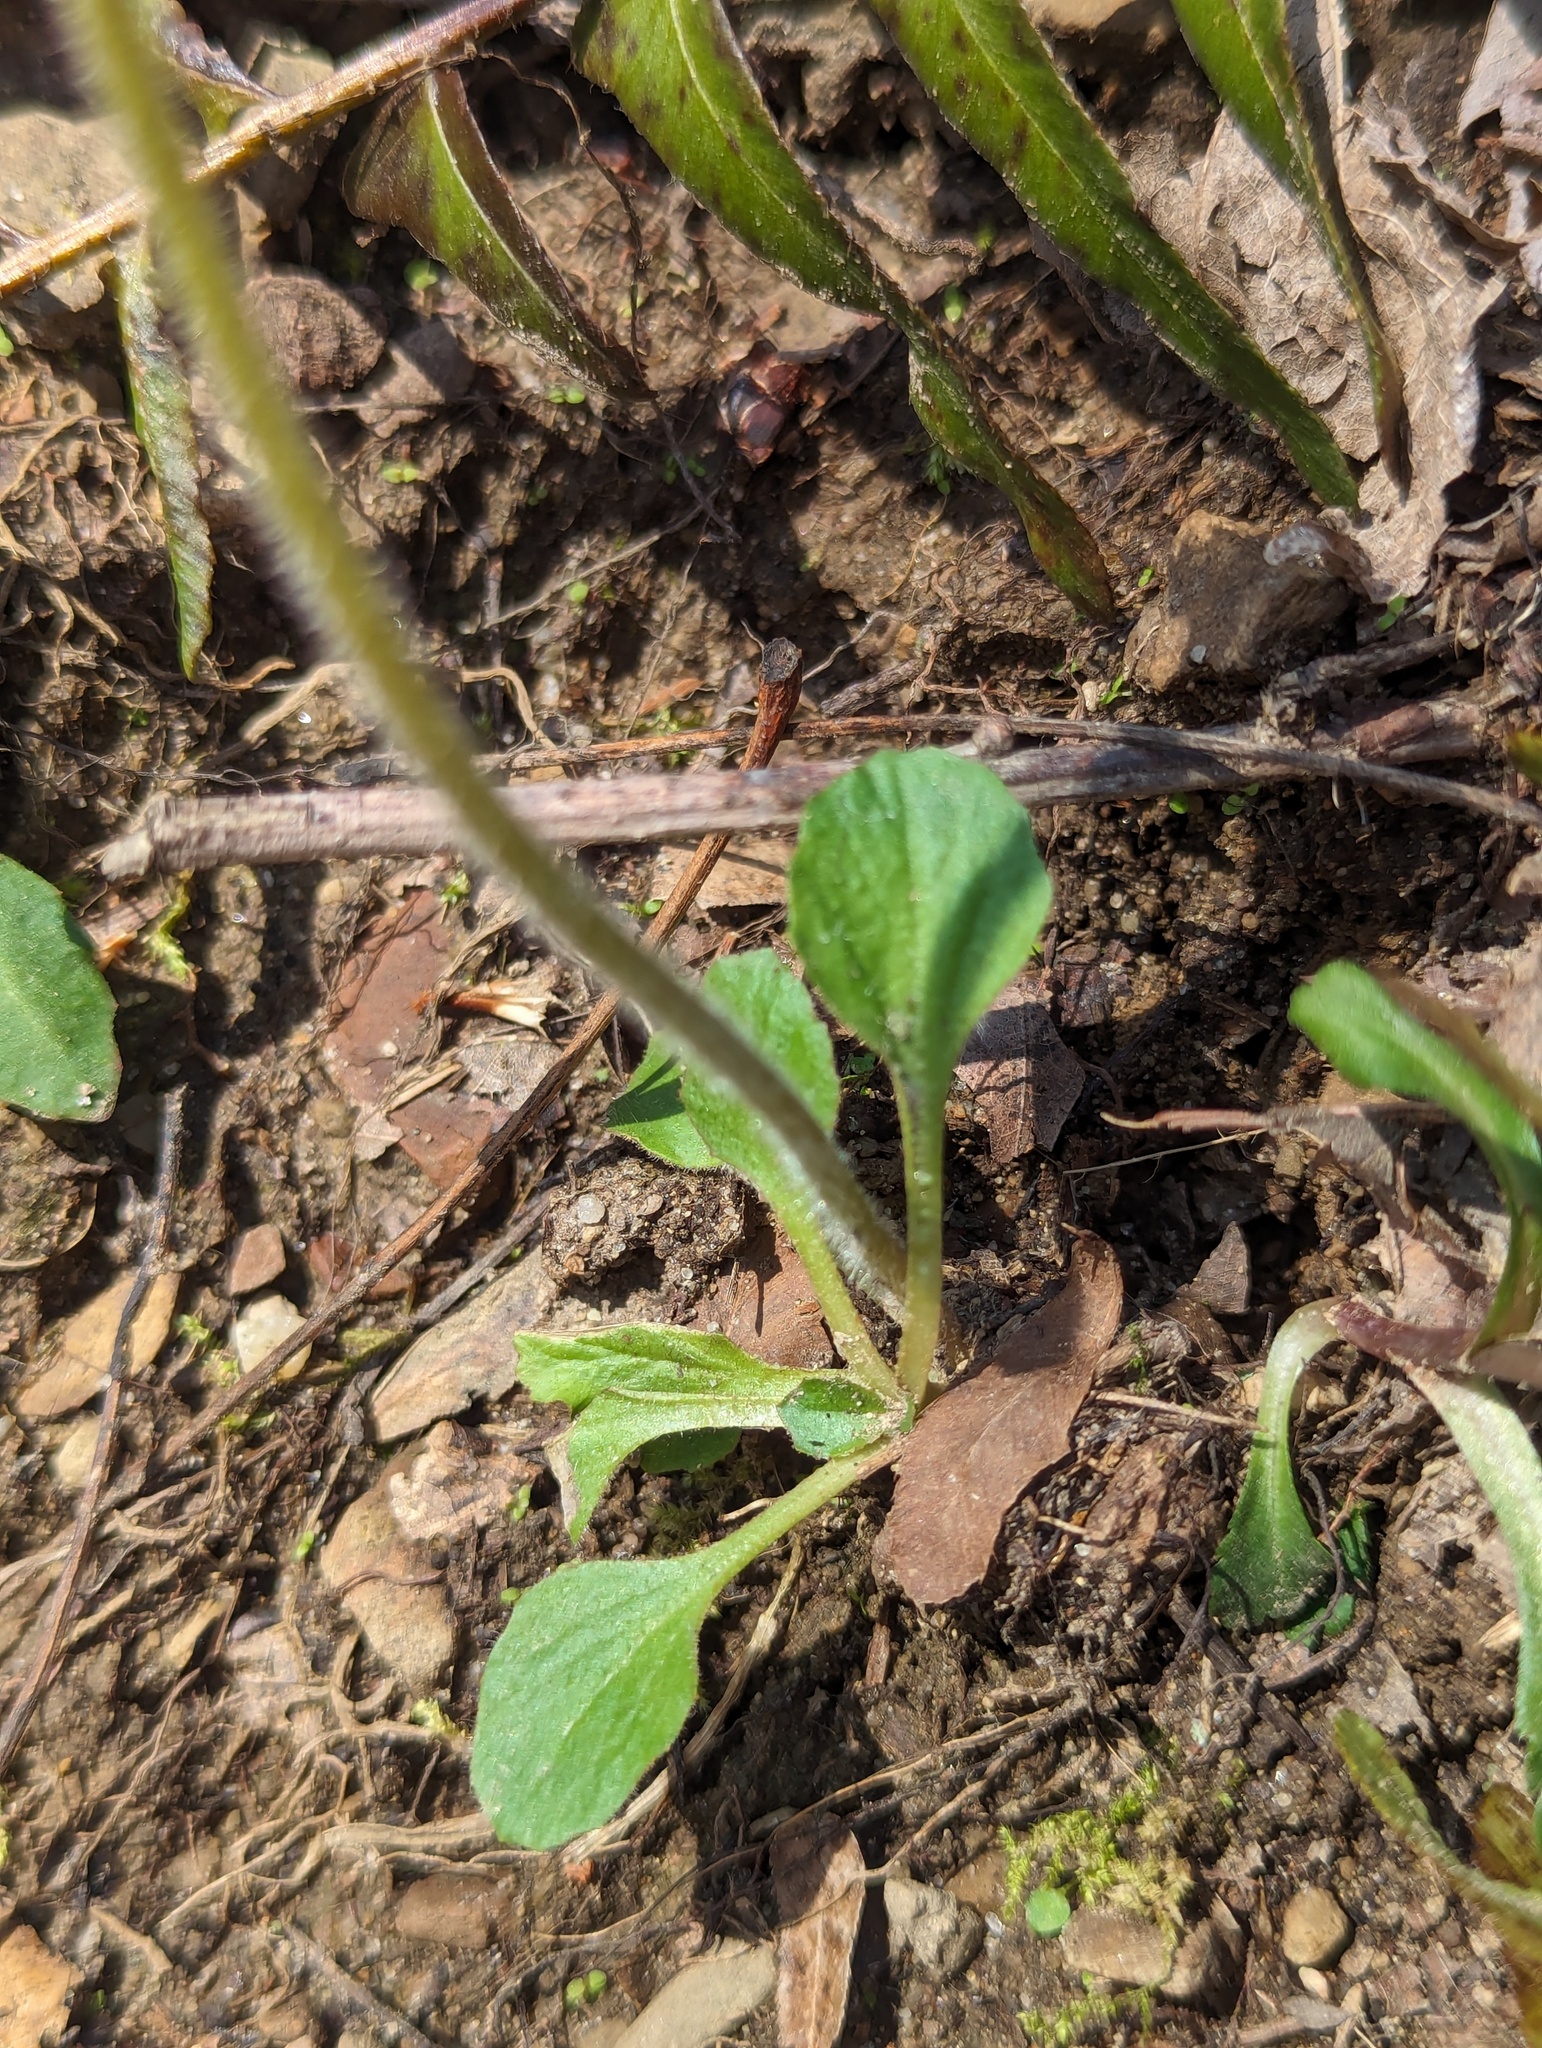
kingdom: Plantae
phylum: Tracheophyta
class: Magnoliopsida
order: Saxifragales
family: Saxifragaceae
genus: Micranthes
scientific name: Micranthes virginiensis
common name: Early saxifrage
